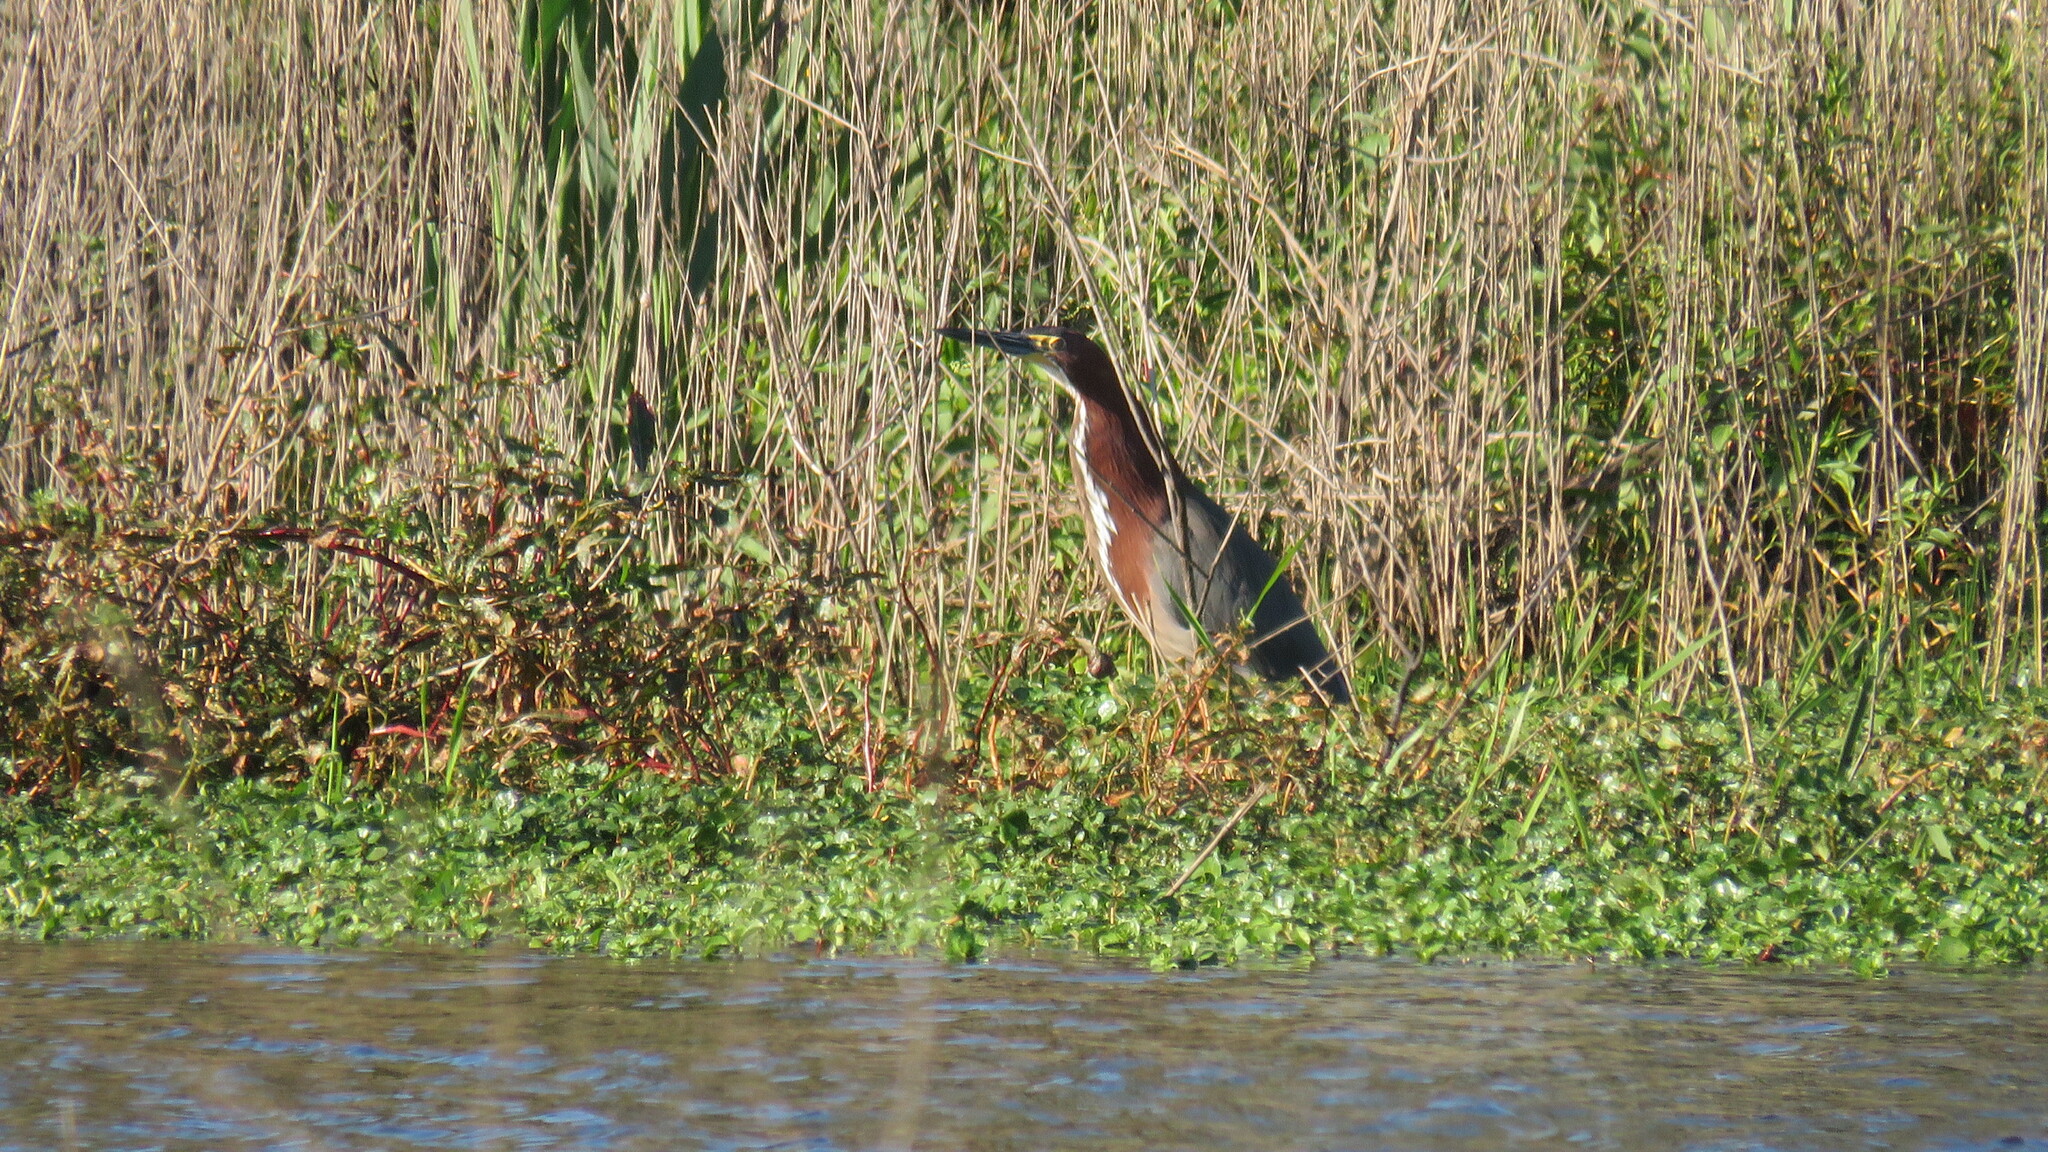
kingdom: Animalia
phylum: Chordata
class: Aves
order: Pelecaniformes
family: Ardeidae
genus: Tigrisoma
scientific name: Tigrisoma lineatum
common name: Rufescent tiger-heron
